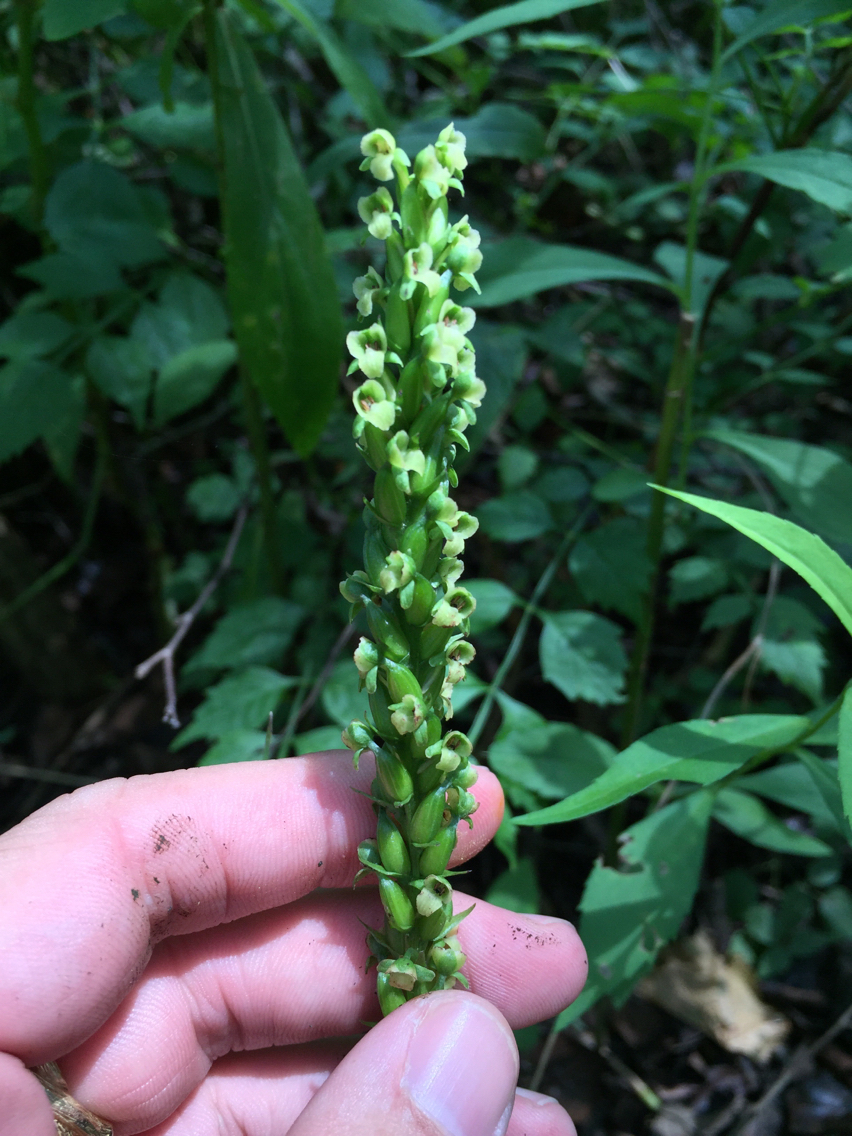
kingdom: Plantae
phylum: Tracheophyta
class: Liliopsida
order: Asparagales
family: Orchidaceae
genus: Platanthera
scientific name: Platanthera flava
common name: Gypsy-spikes
